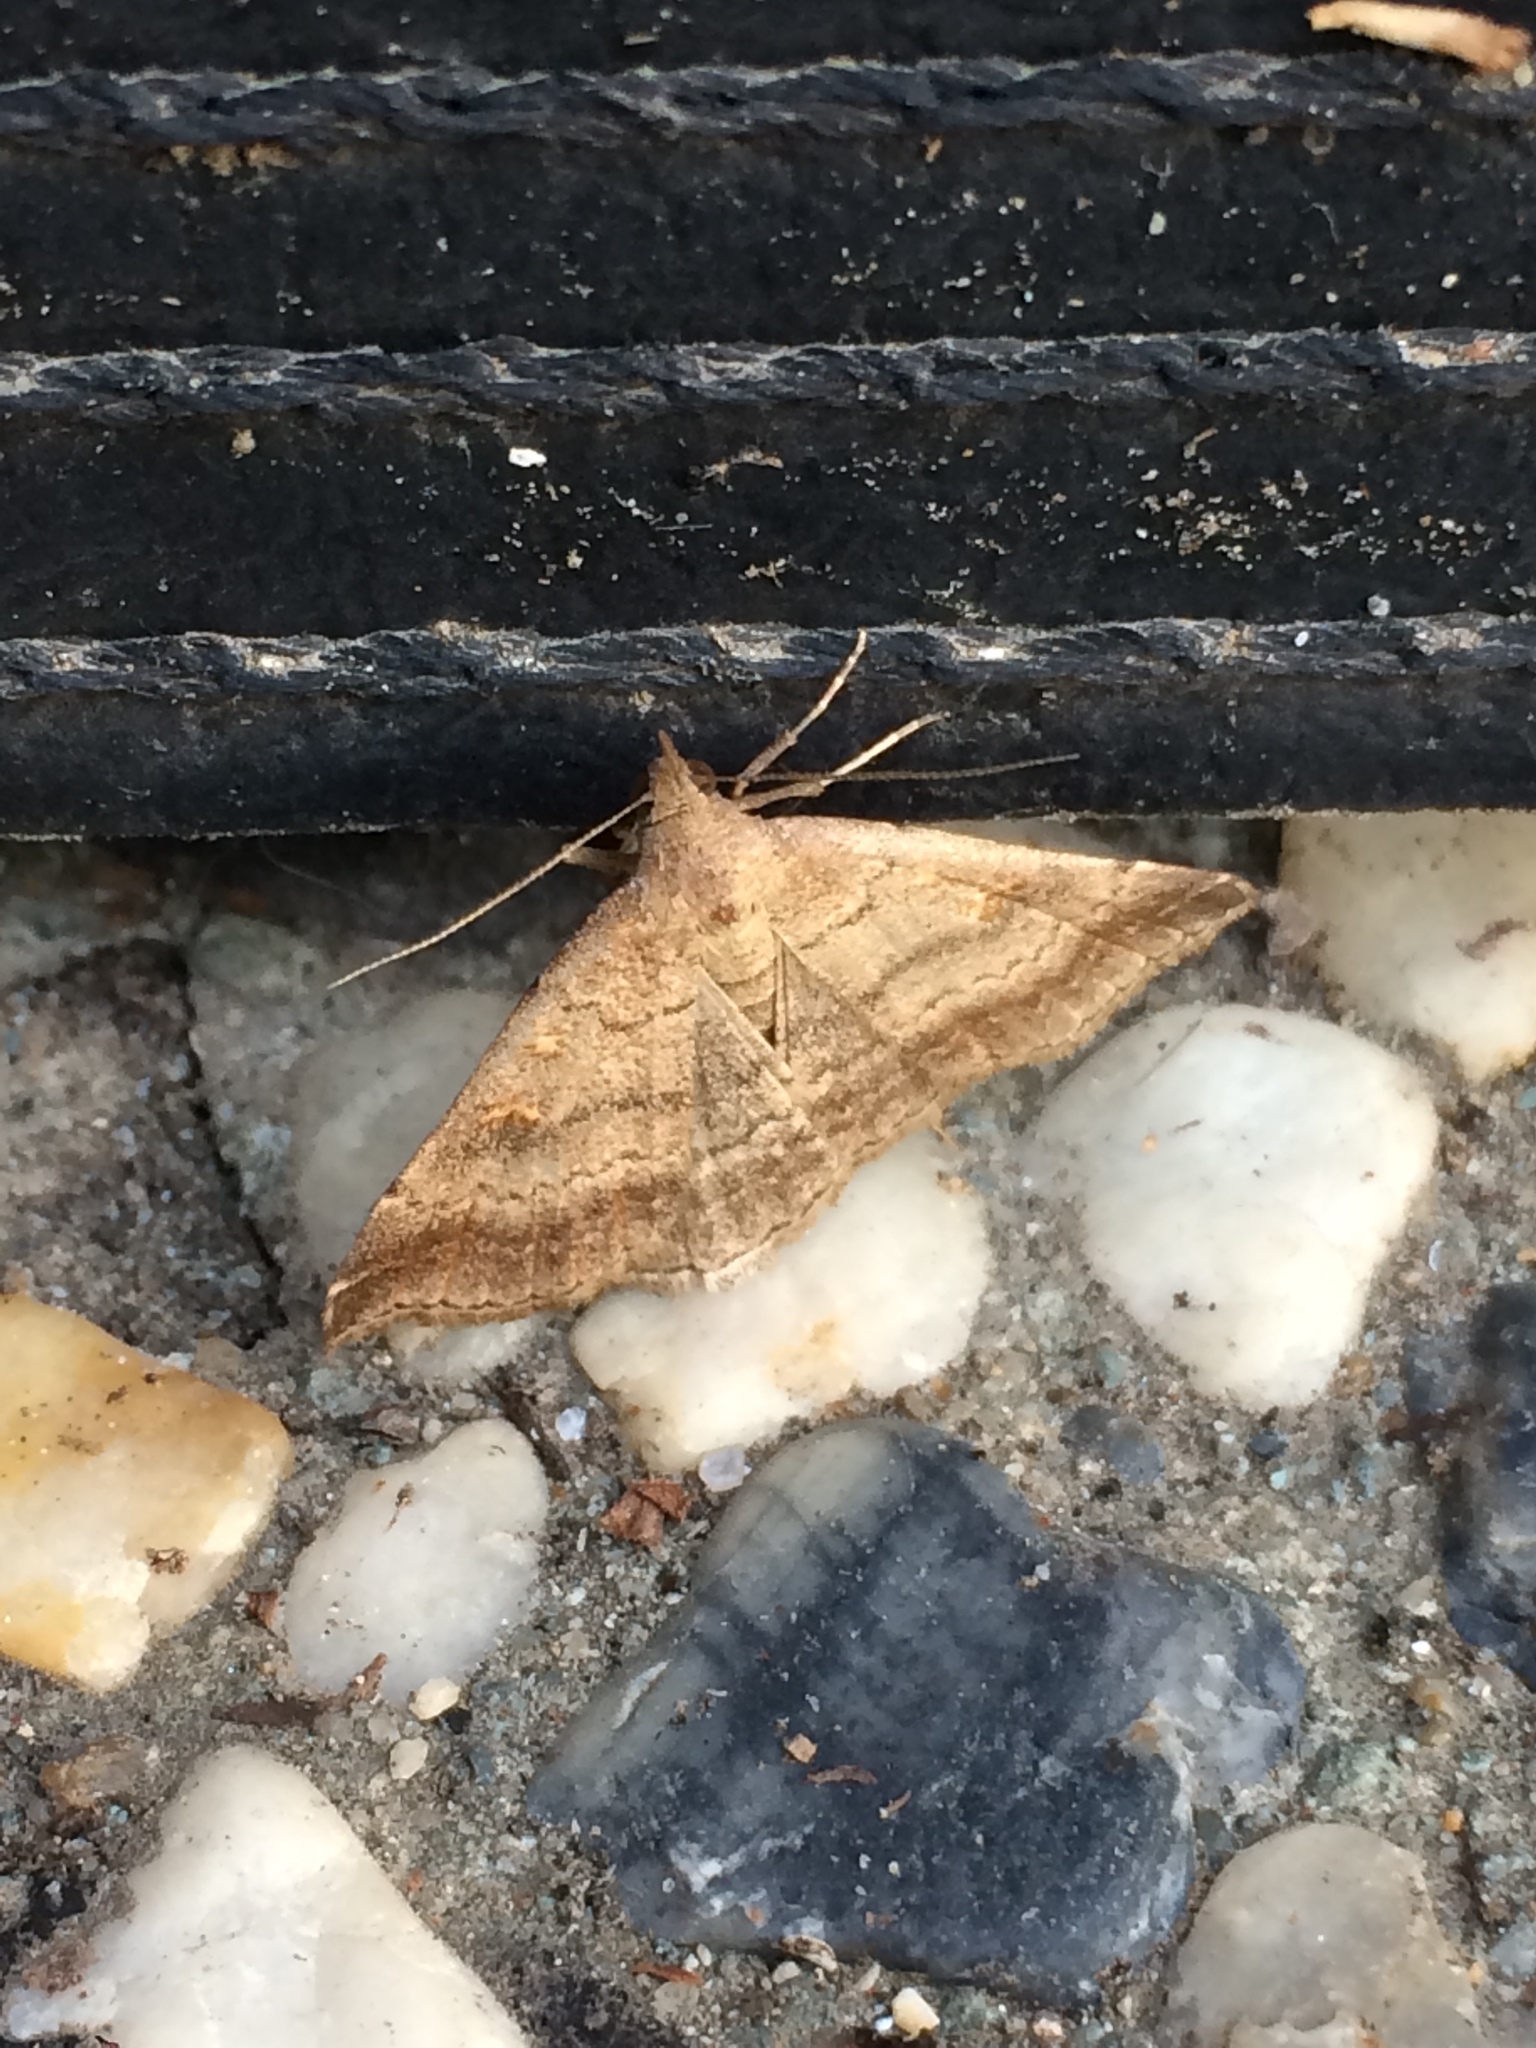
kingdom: Animalia
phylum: Arthropoda
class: Insecta
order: Lepidoptera
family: Erebidae
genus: Tetanolita
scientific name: Tetanolita palligera
